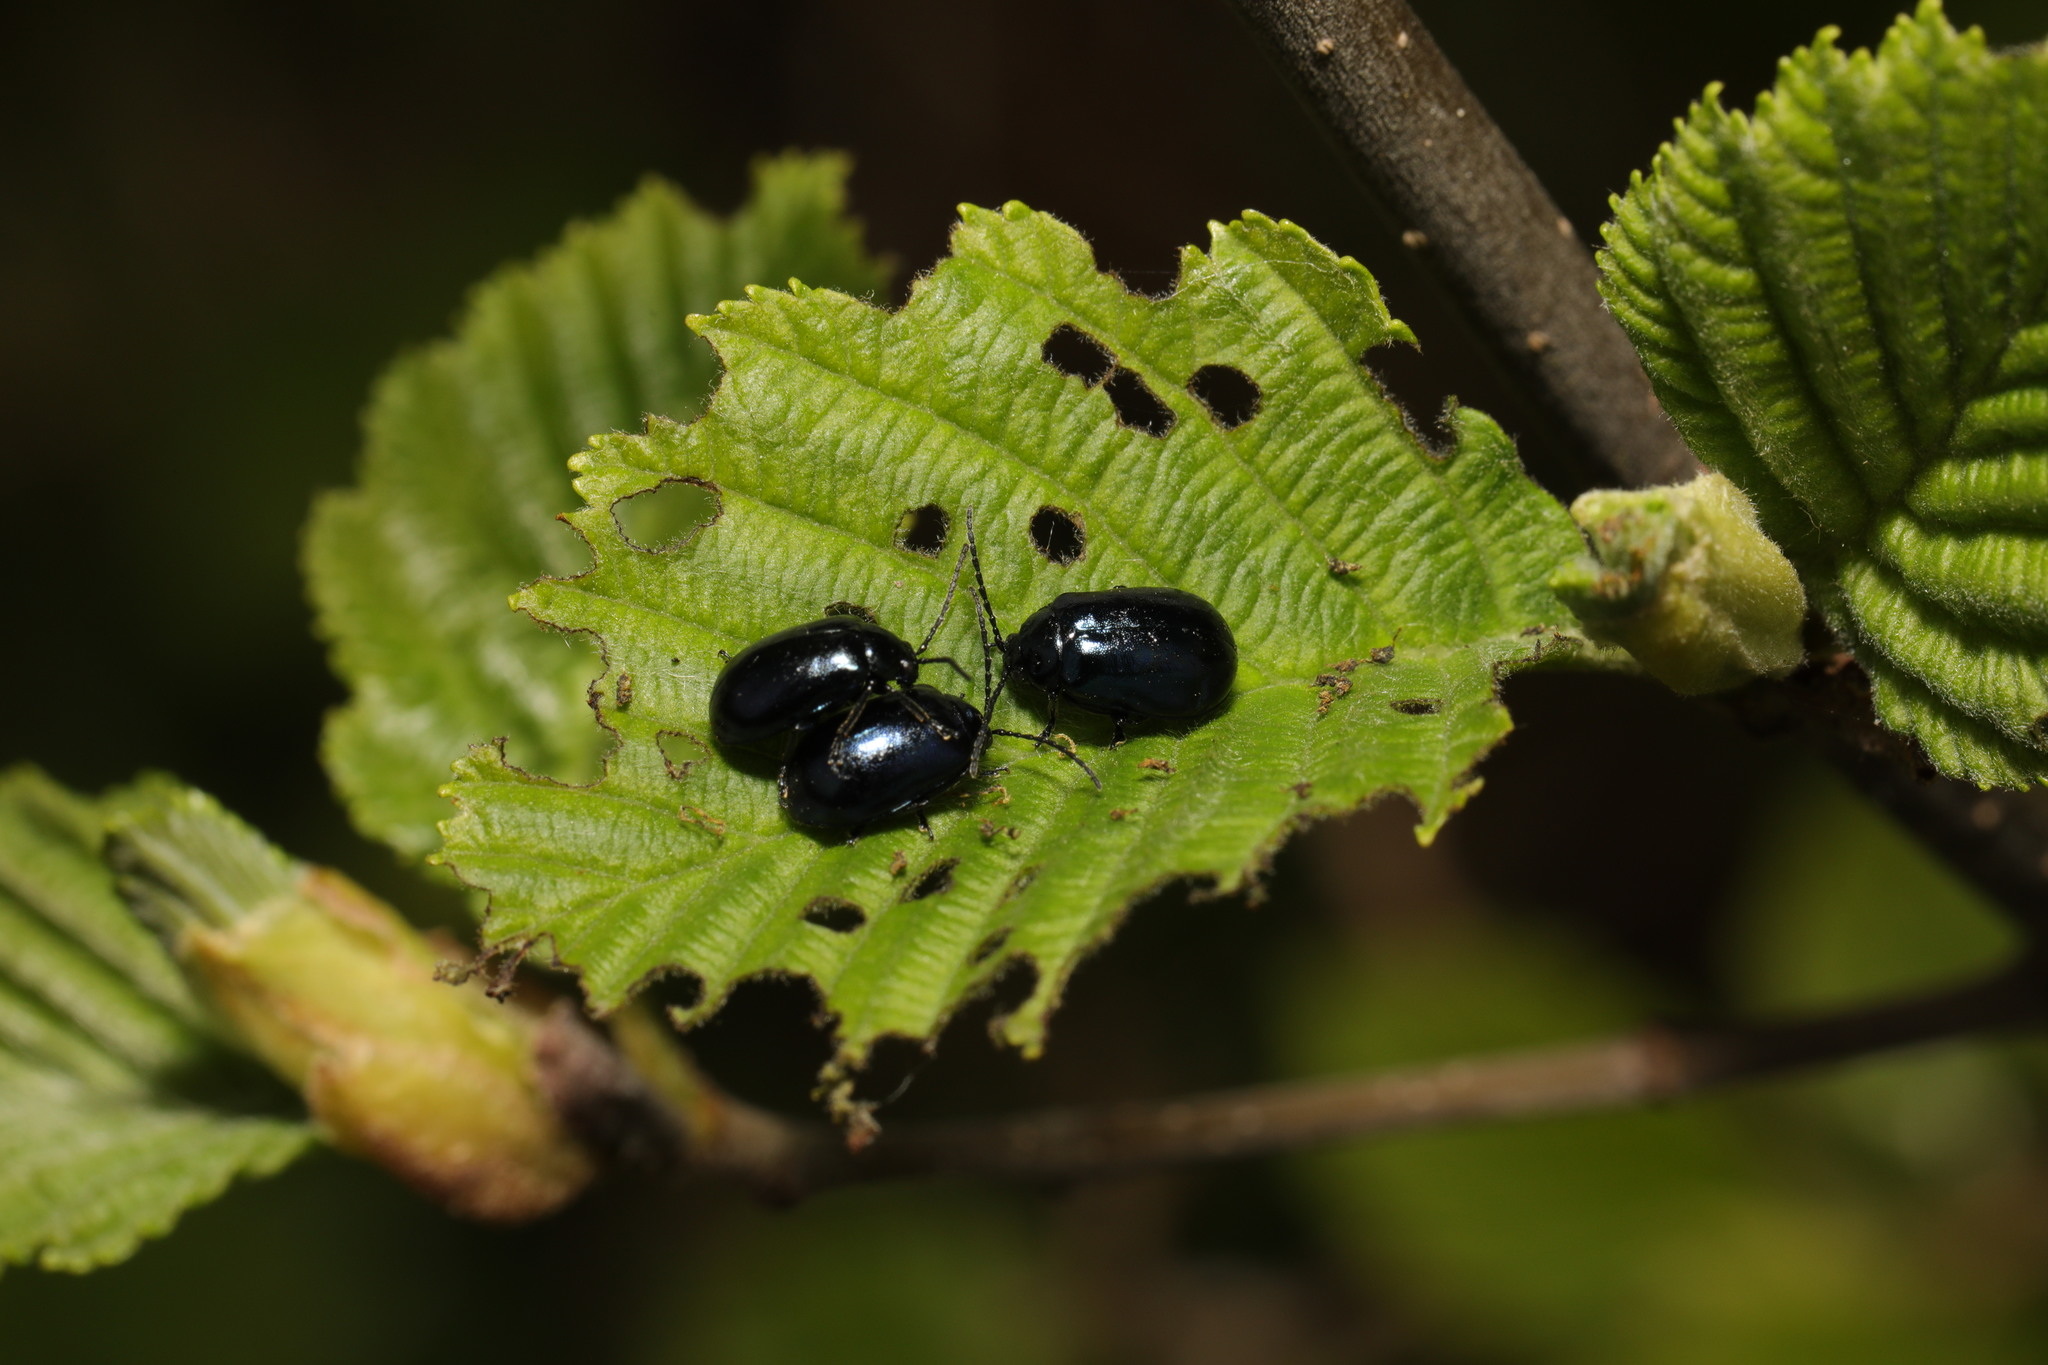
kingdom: Animalia
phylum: Arthropoda
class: Insecta
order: Coleoptera
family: Chrysomelidae
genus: Agelastica
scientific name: Agelastica alni
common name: Alder leaf beetle
